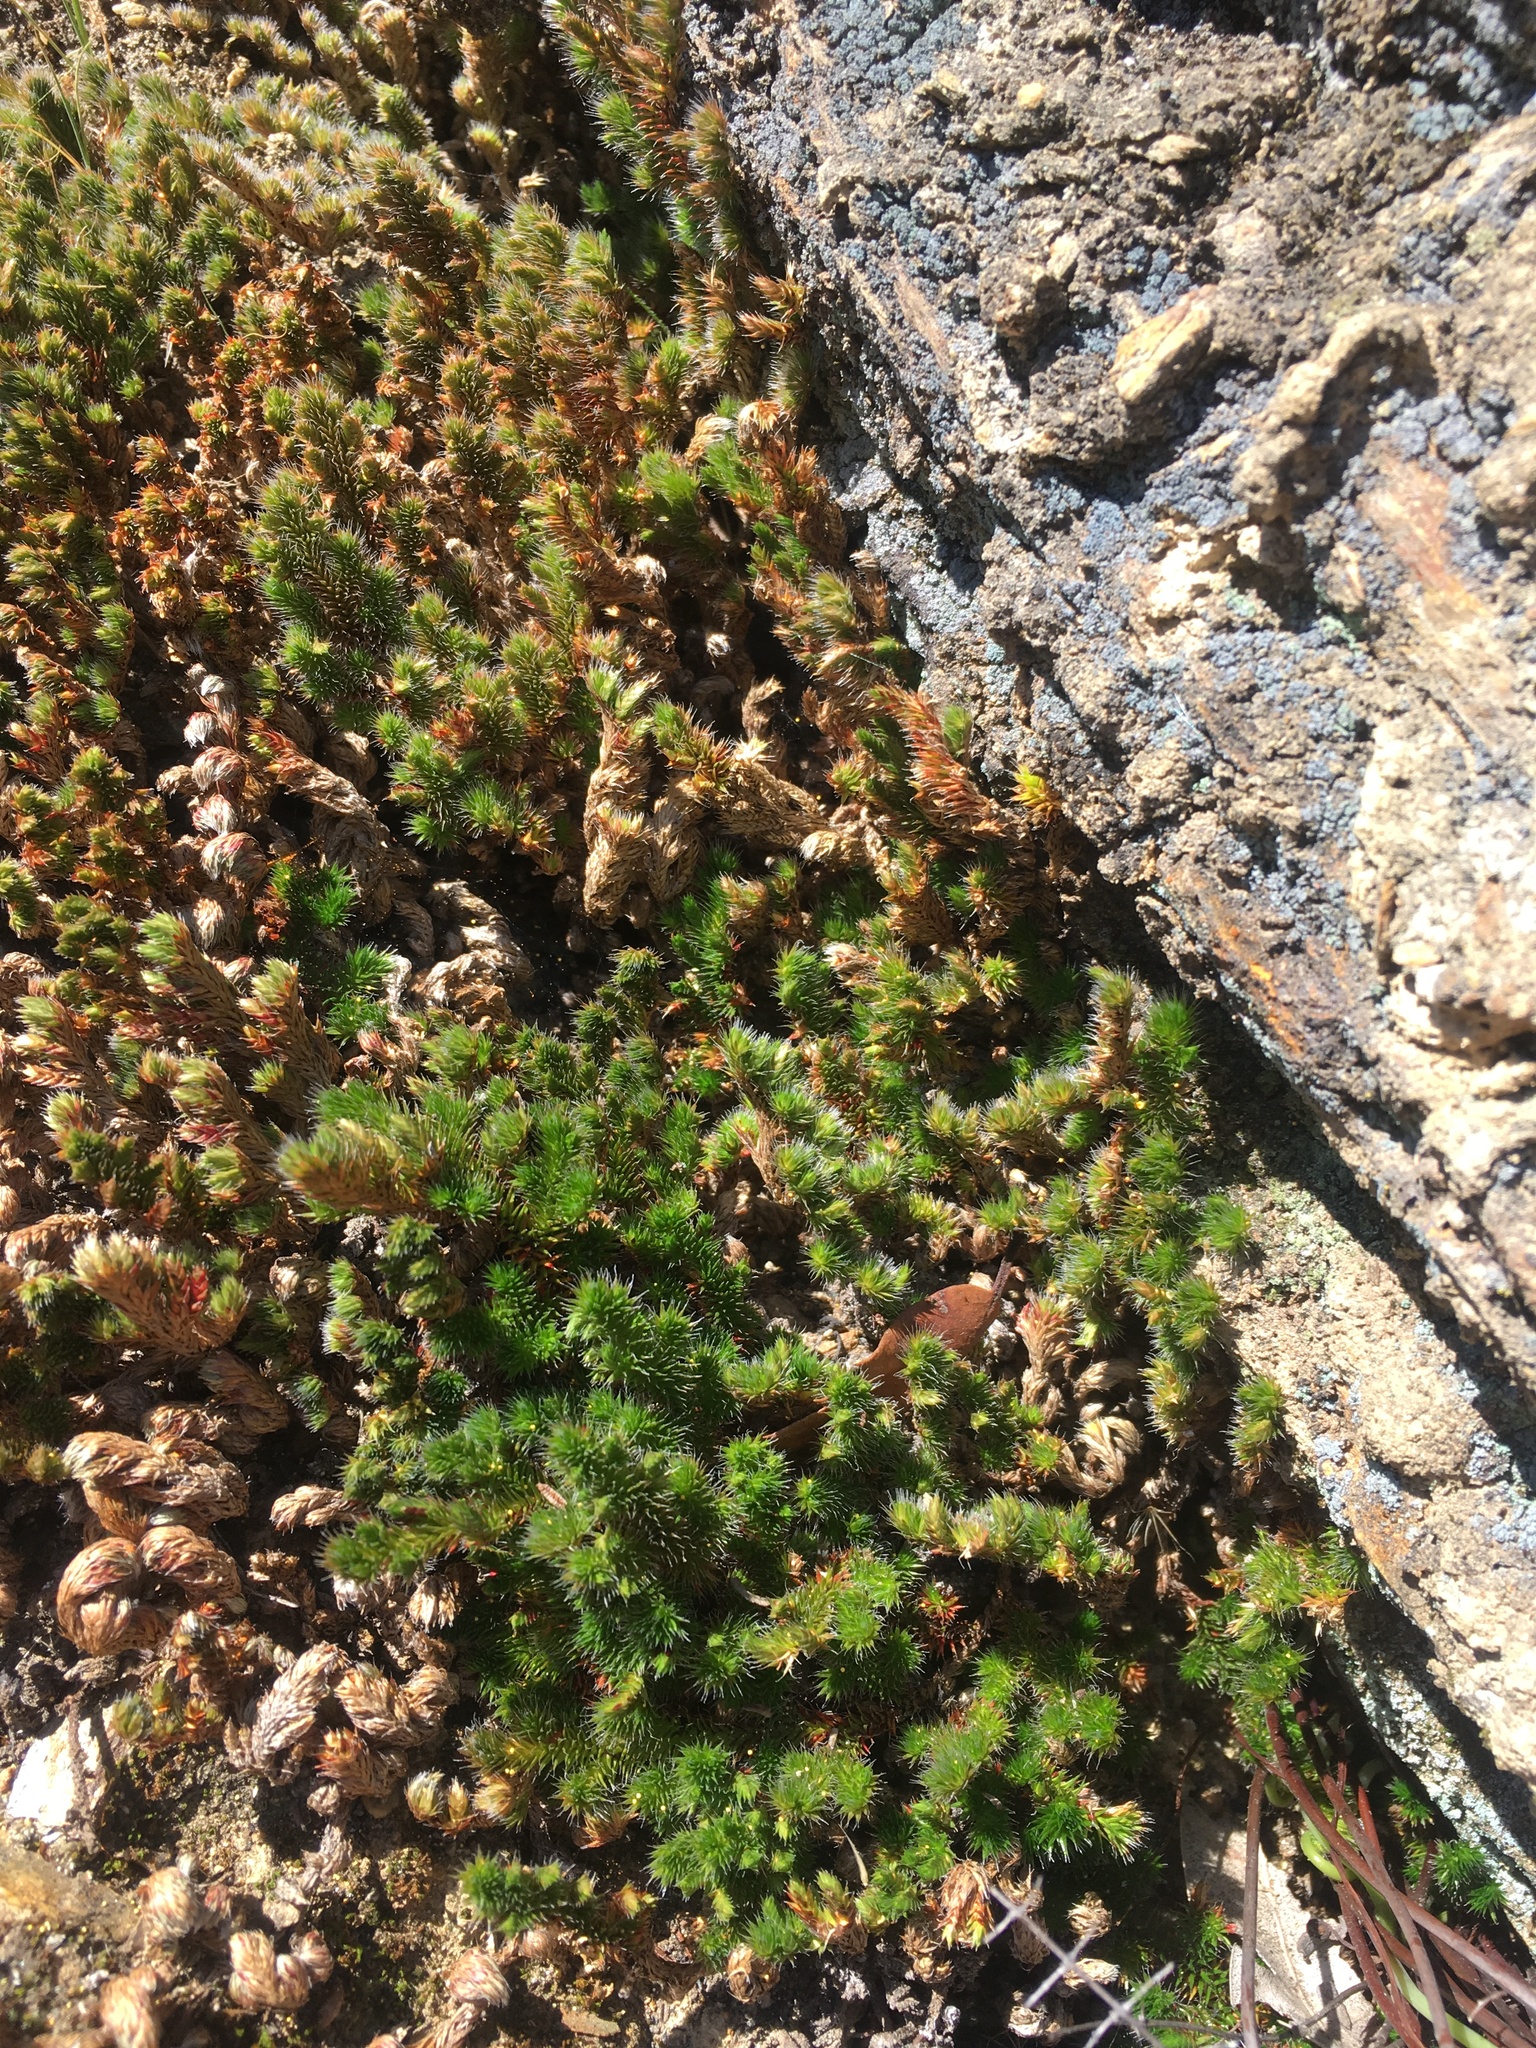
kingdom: Plantae
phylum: Tracheophyta
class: Lycopodiopsida
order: Selaginellales
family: Selaginellaceae
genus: Selaginella
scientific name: Selaginella hansenii
